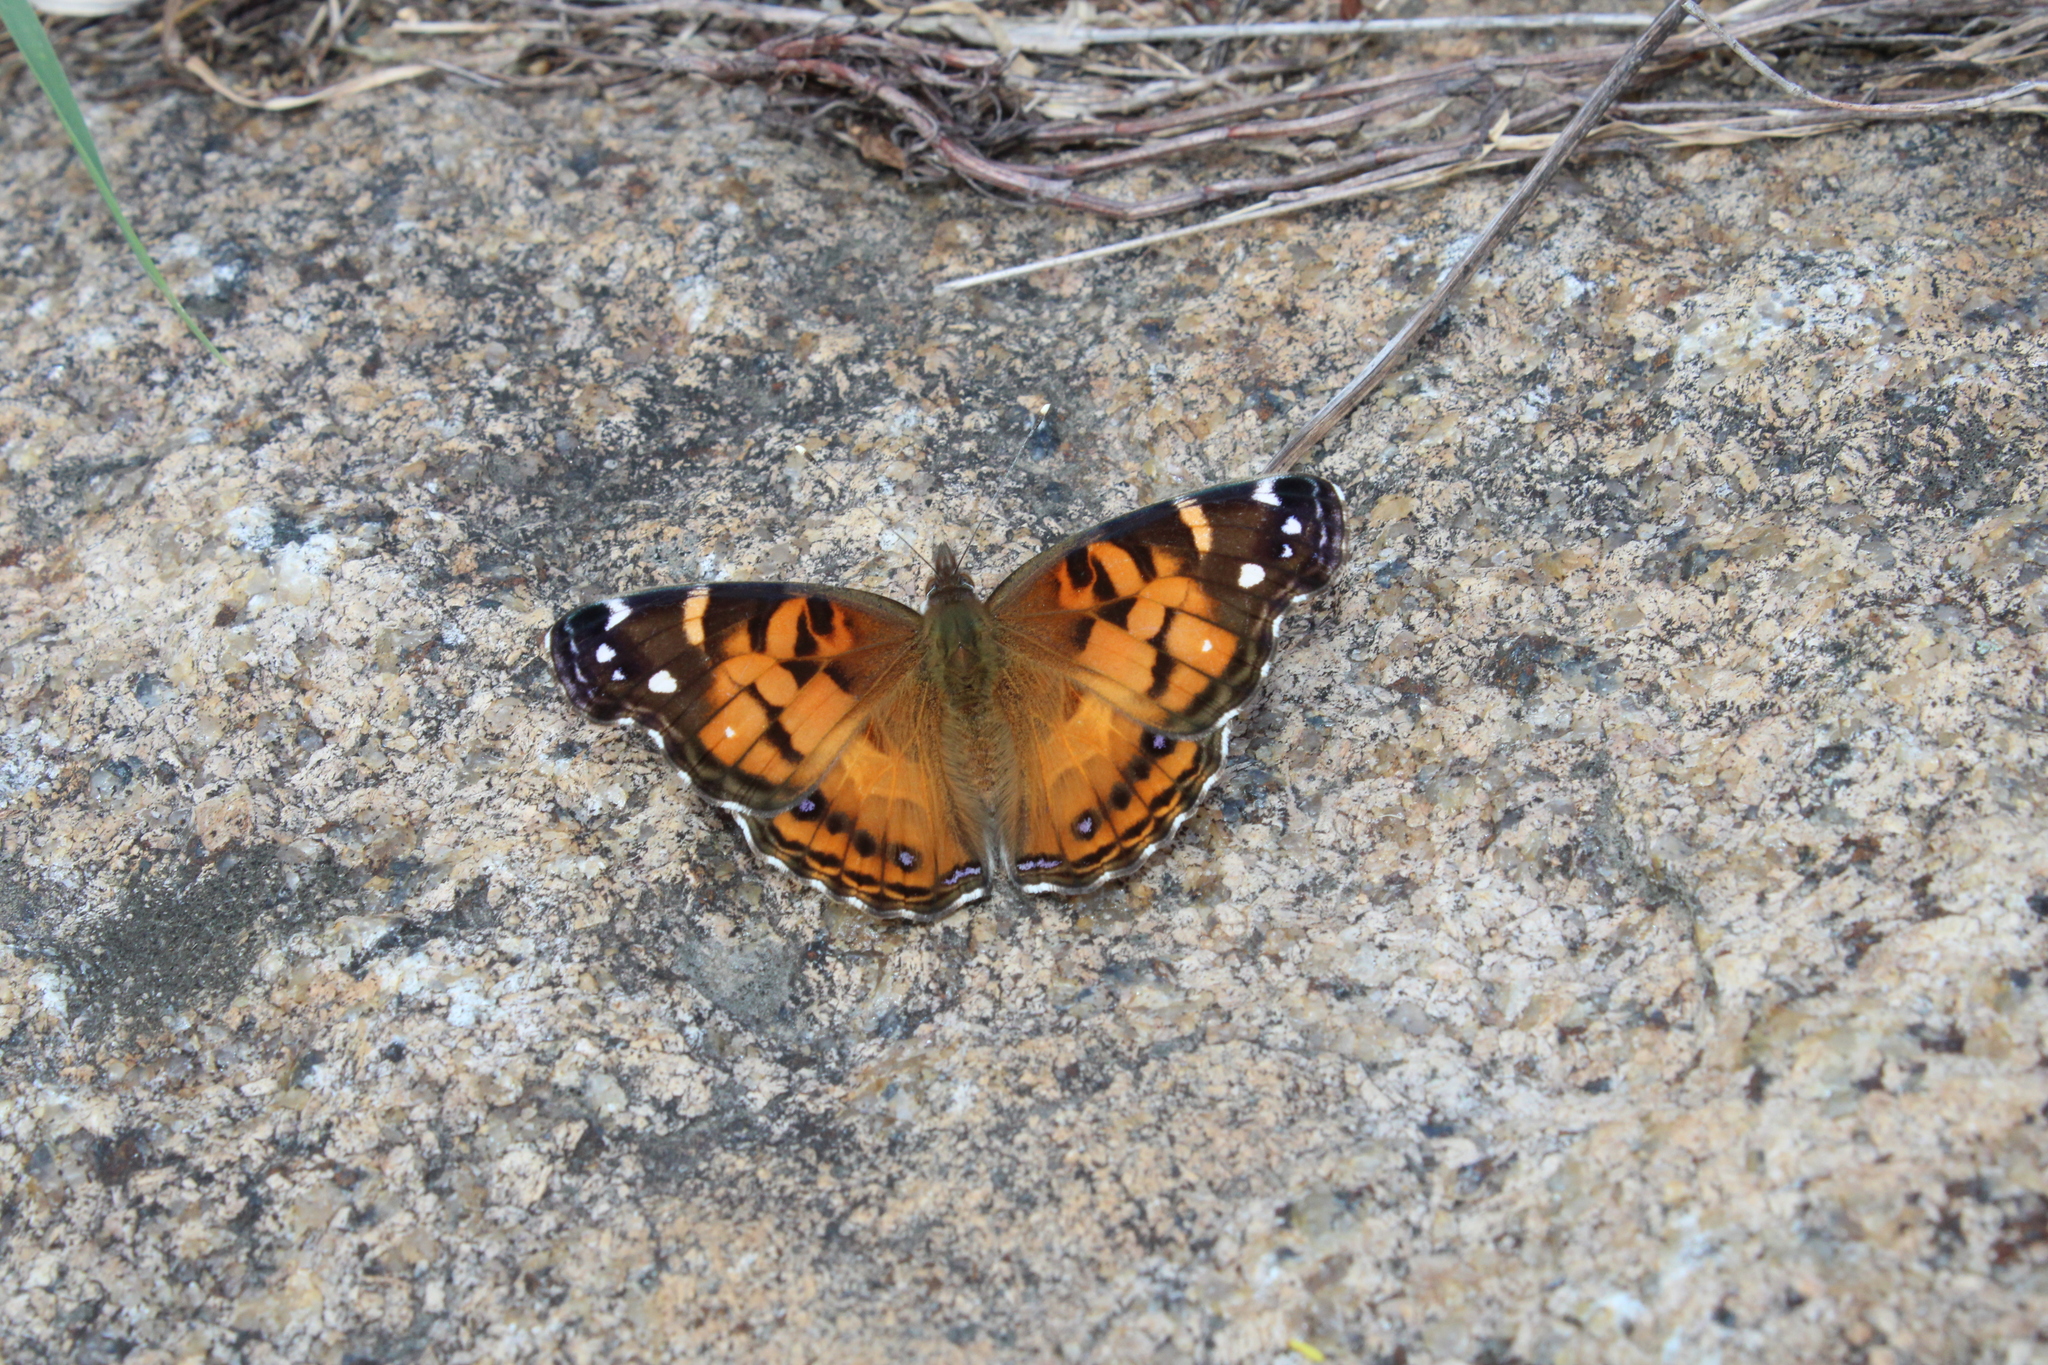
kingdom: Animalia
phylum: Arthropoda
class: Insecta
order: Lepidoptera
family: Nymphalidae
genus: Vanessa
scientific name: Vanessa virginiensis
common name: American lady
